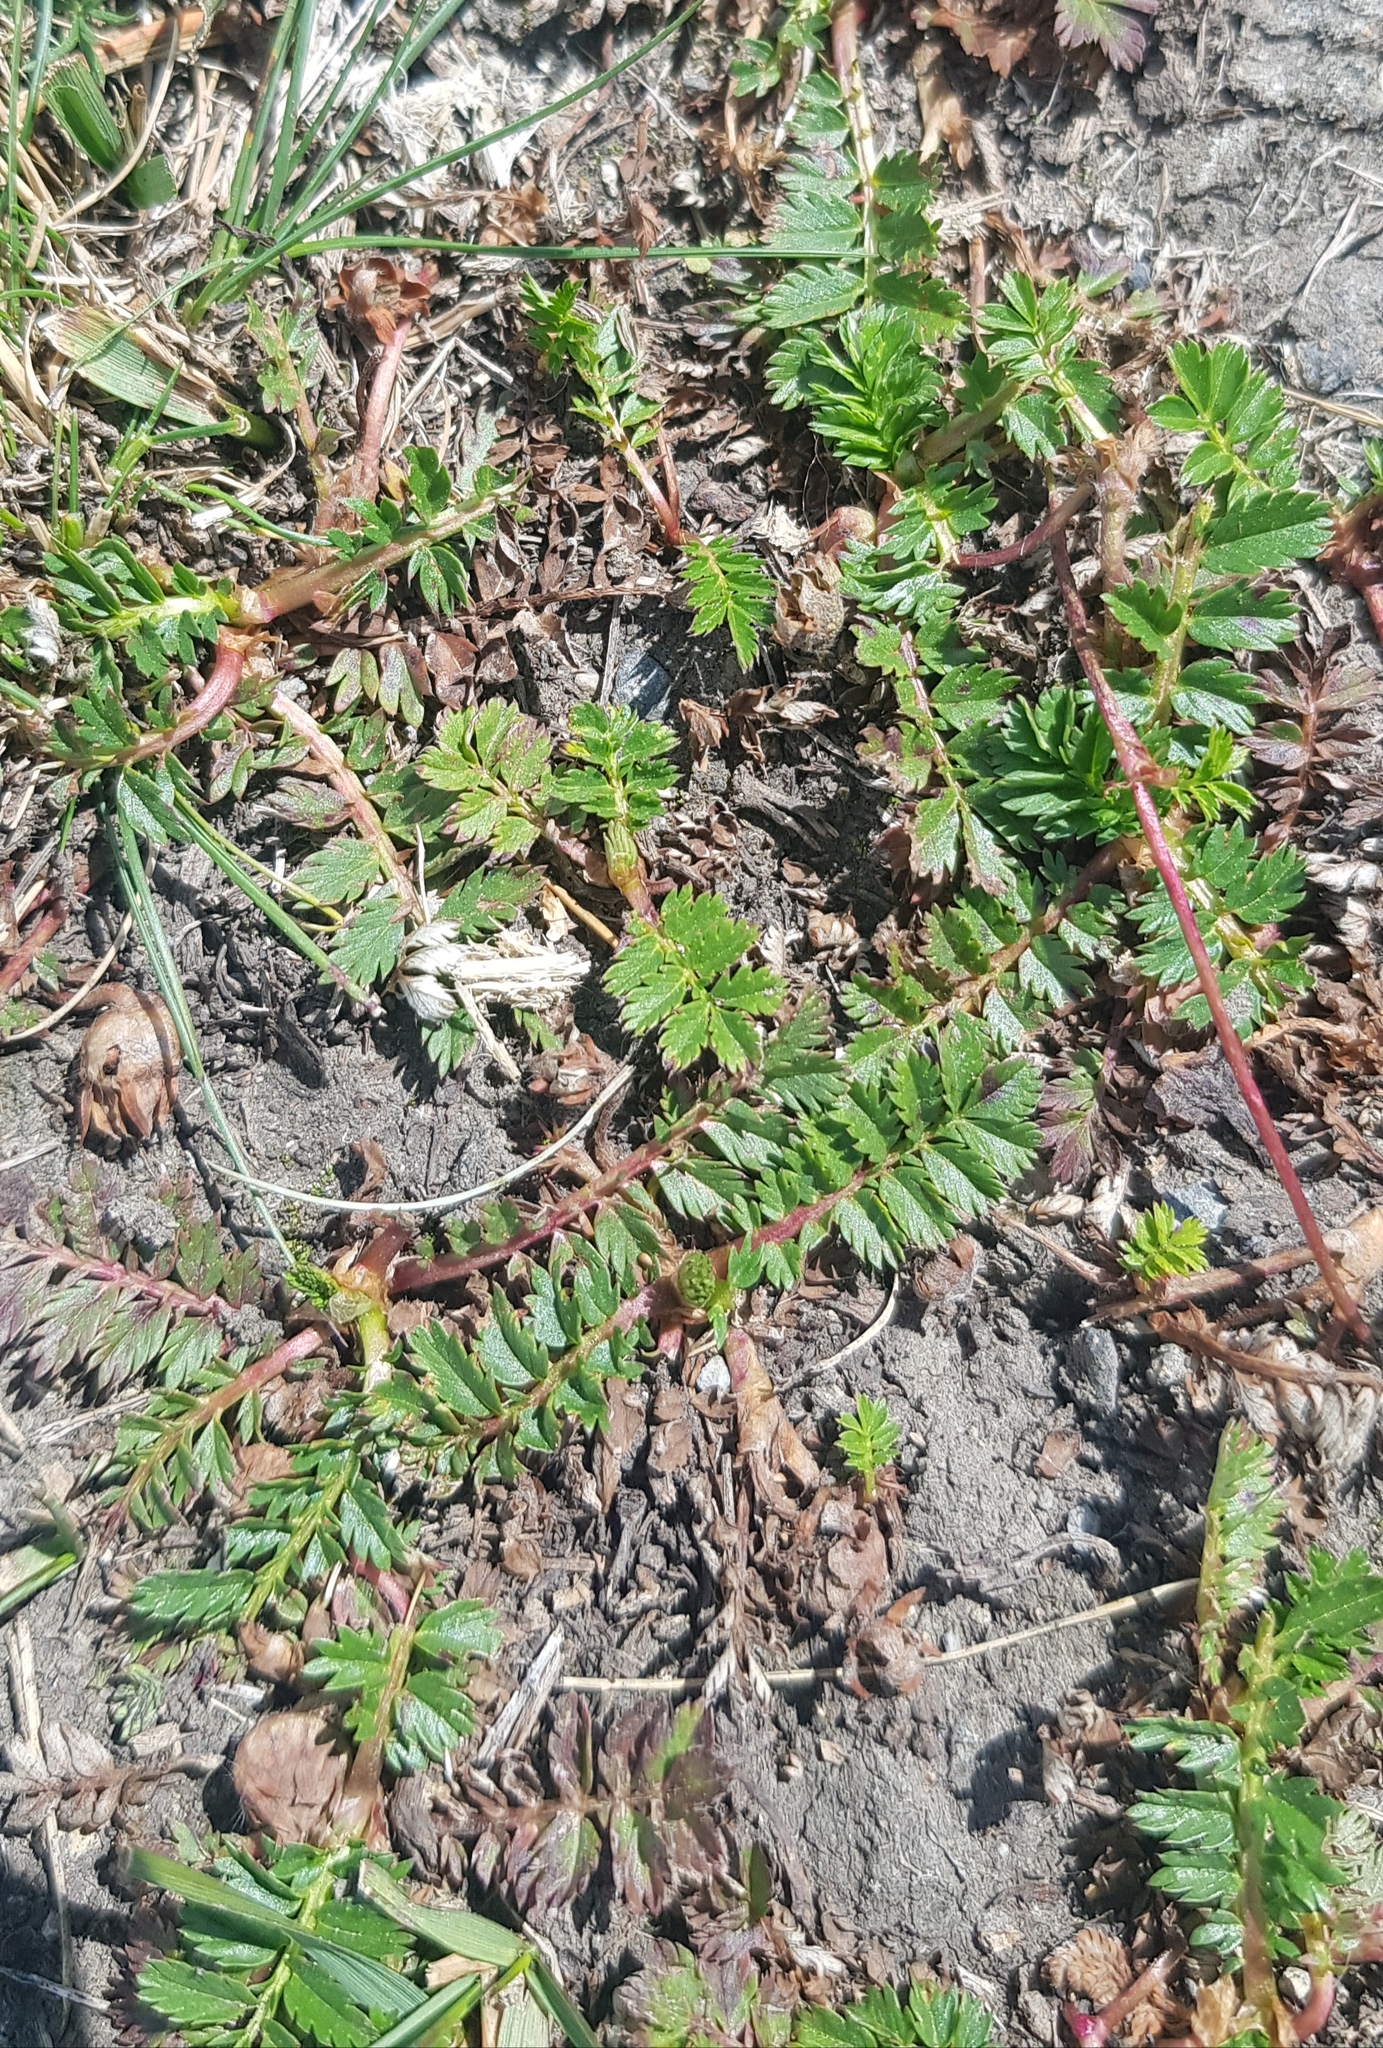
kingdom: Plantae
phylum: Tracheophyta
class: Magnoliopsida
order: Rosales
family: Rosaceae
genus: Argentina
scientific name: Argentina anserina
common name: Common silverweed
